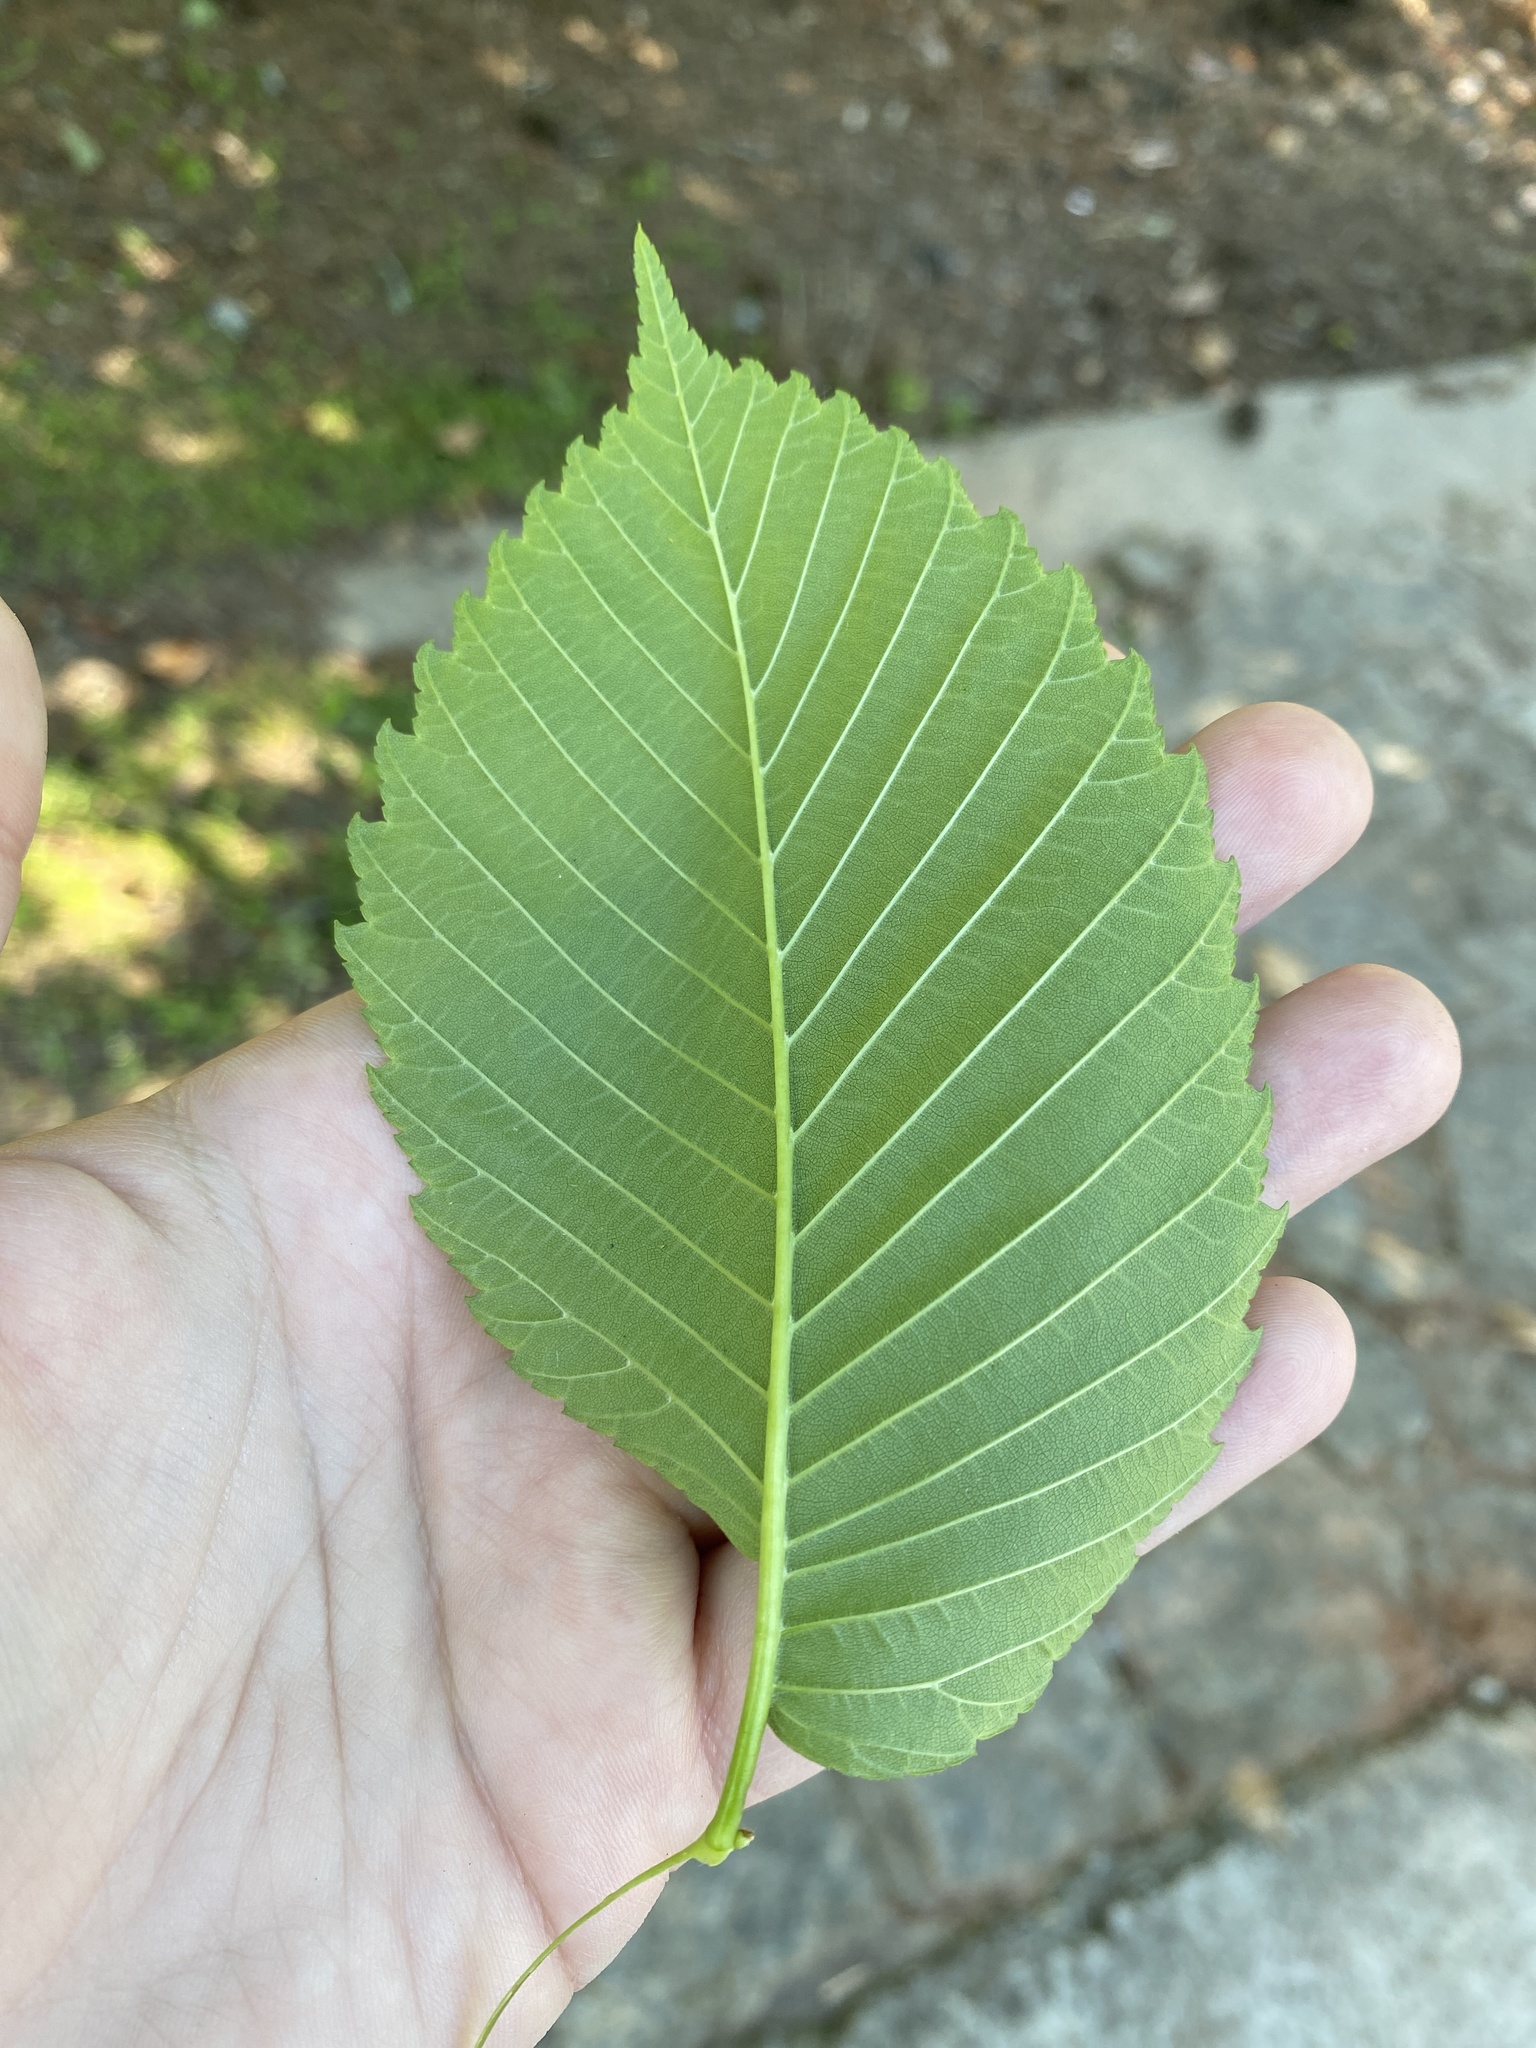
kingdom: Plantae
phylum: Tracheophyta
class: Magnoliopsida
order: Rosales
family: Ulmaceae
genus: Ulmus
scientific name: Ulmus americana
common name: American elm
